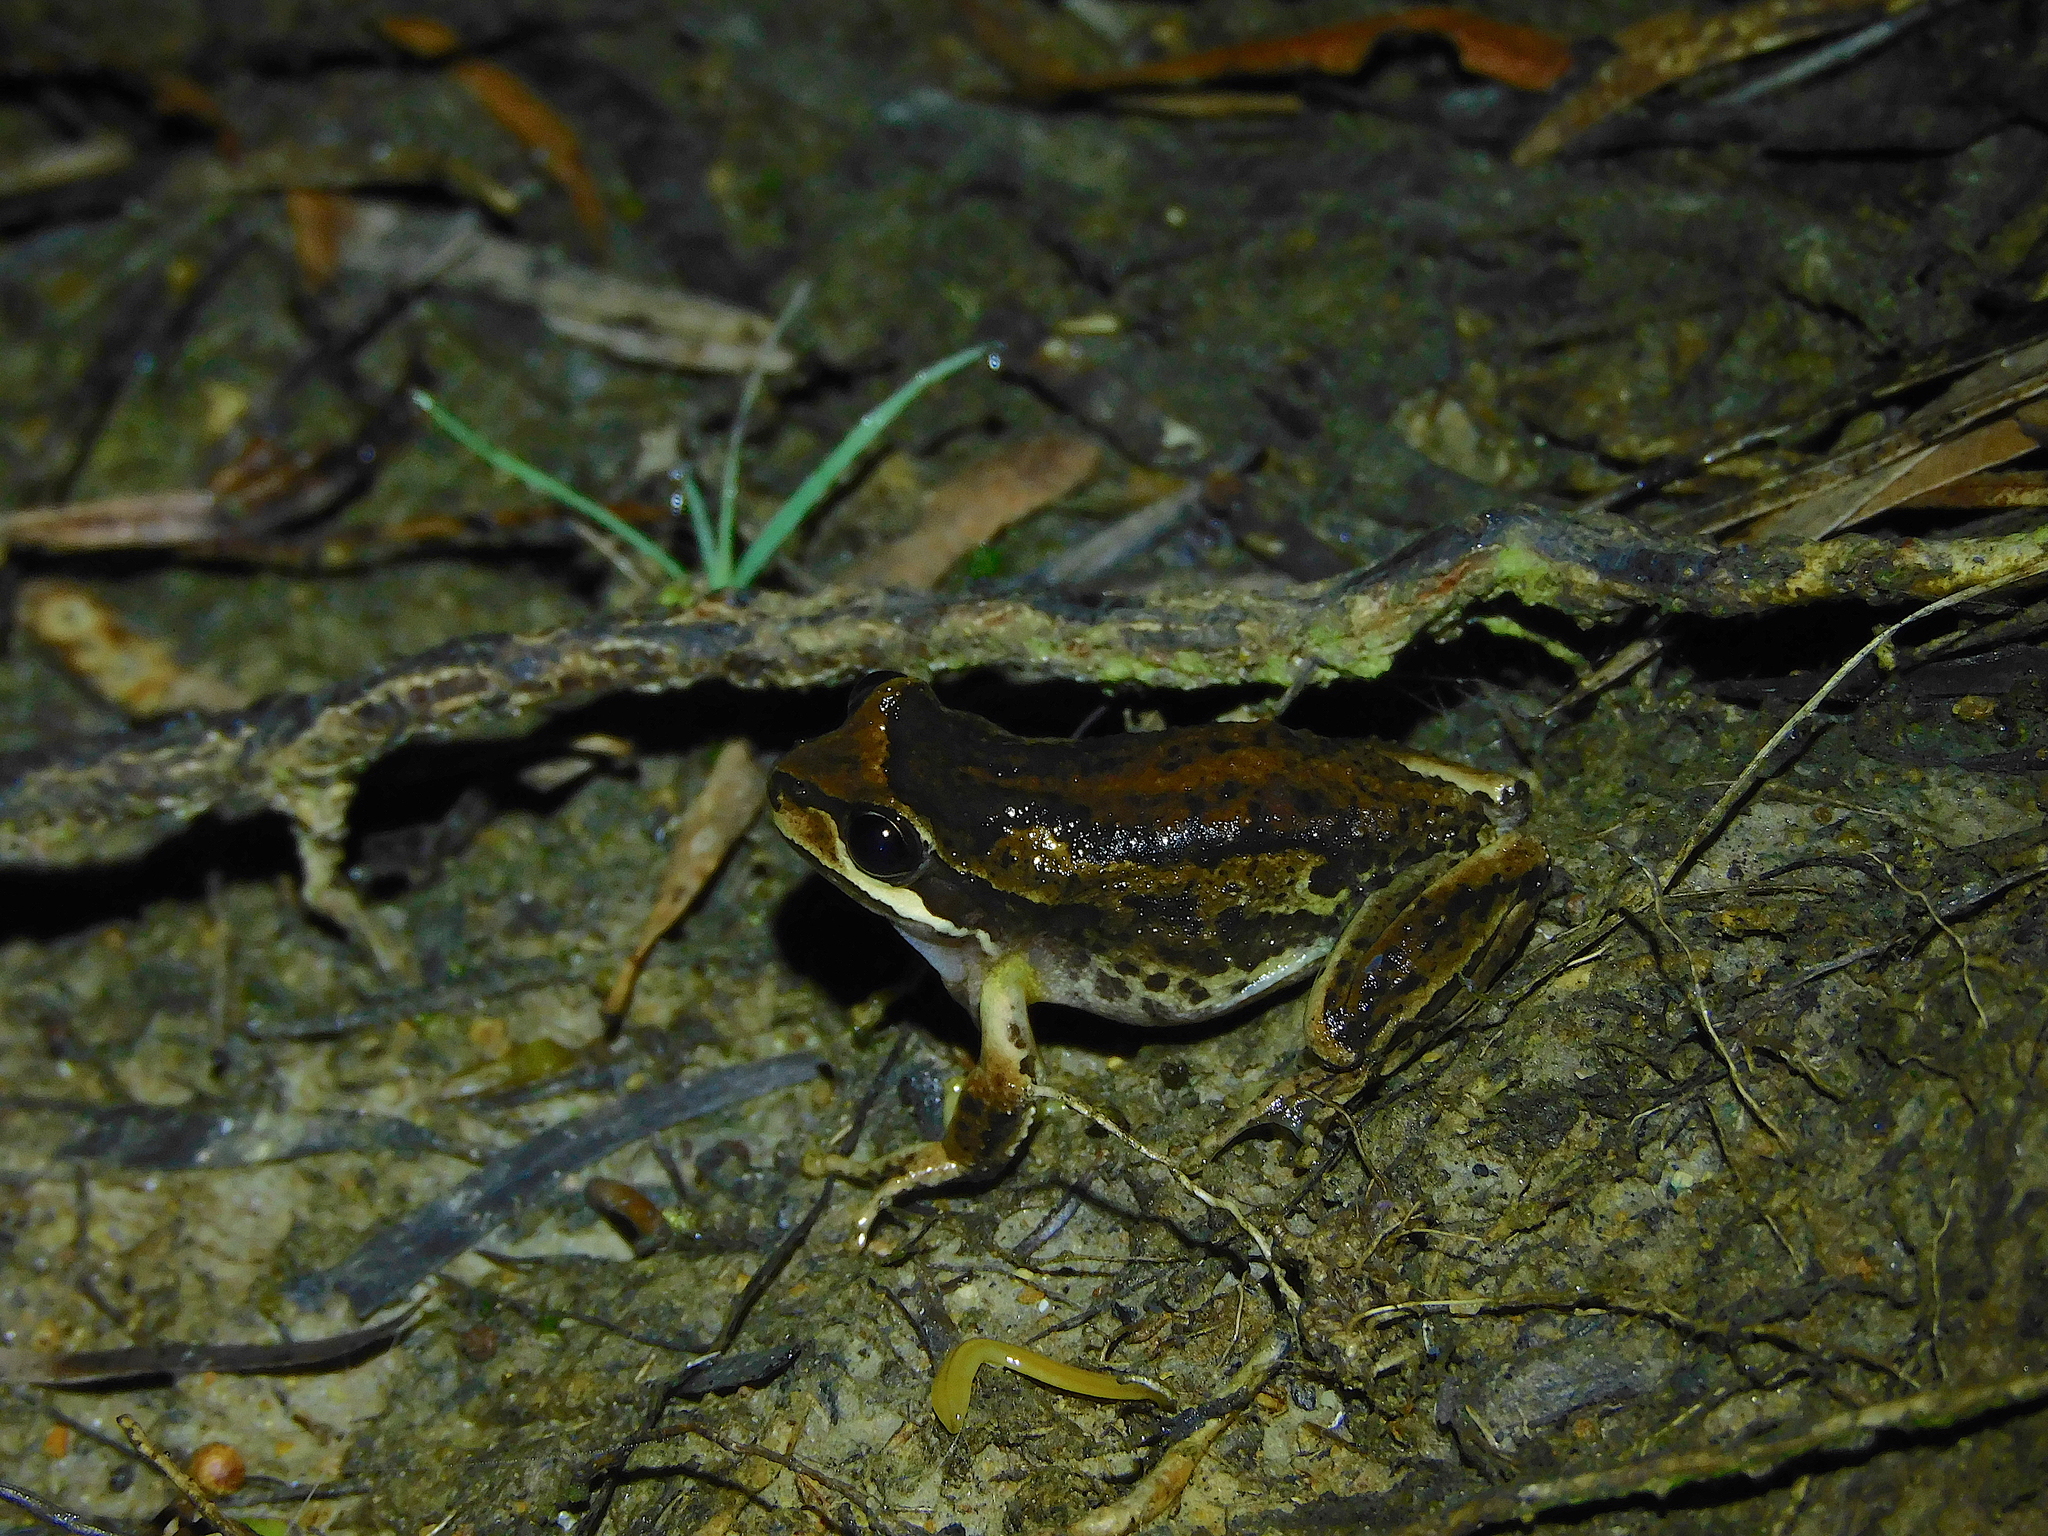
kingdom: Animalia
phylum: Chordata
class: Amphibia
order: Anura
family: Pelodryadidae
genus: Litoria
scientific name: Litoria ewingii
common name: Southern brown tree frog
